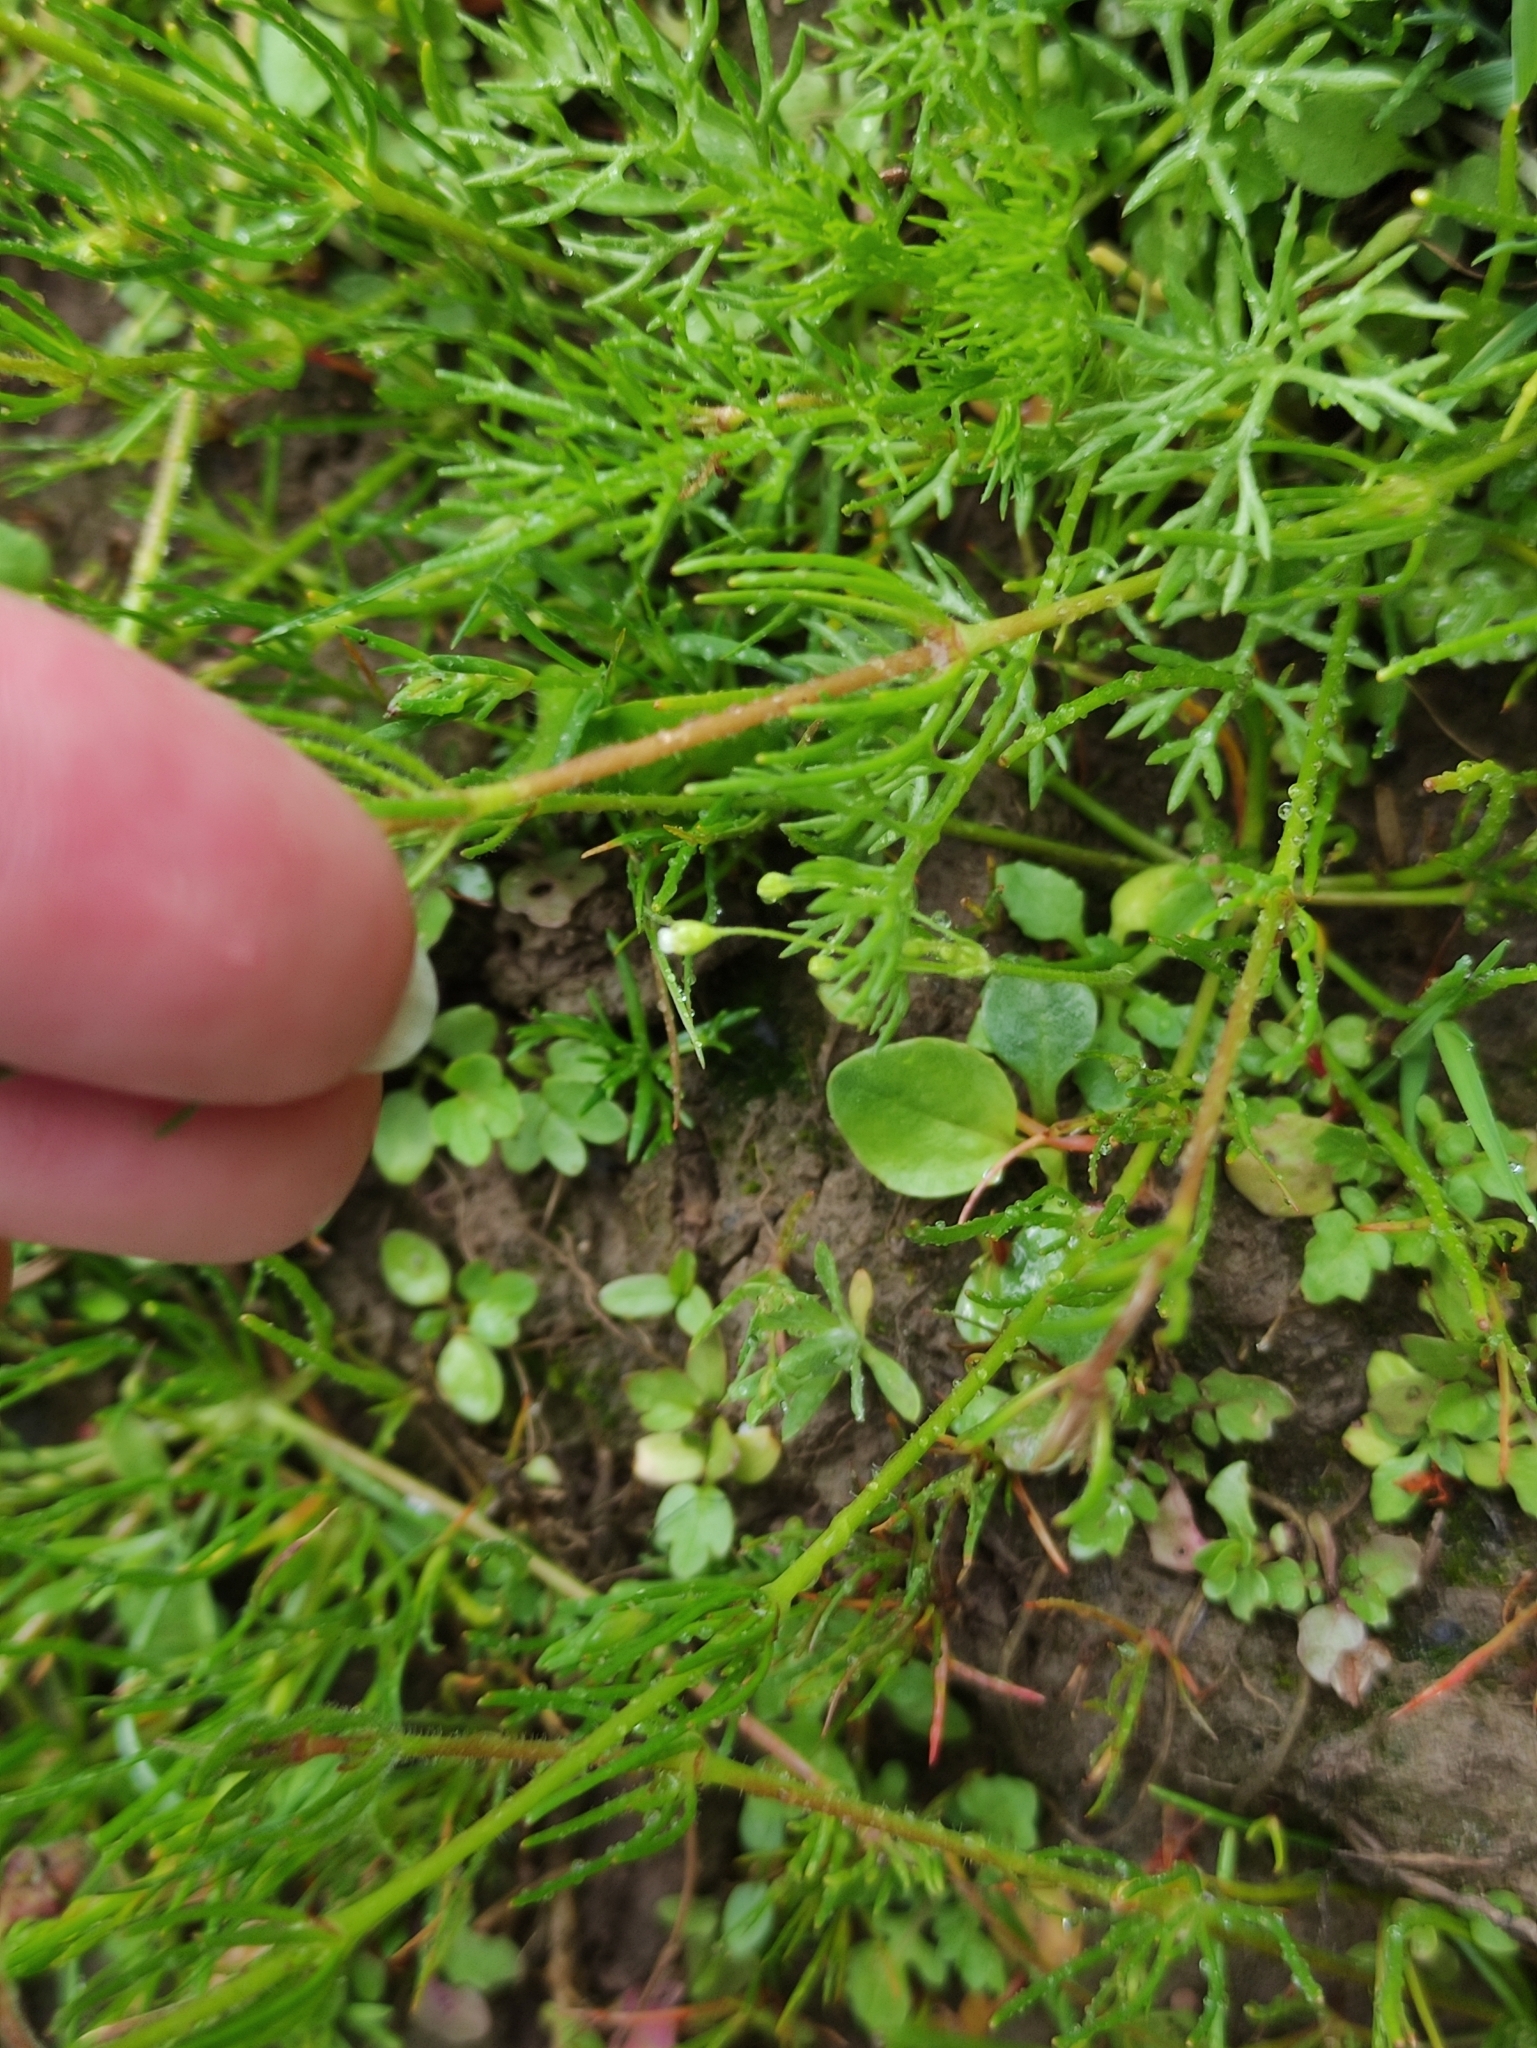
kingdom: Plantae
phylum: Tracheophyta
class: Magnoliopsida
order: Caryophyllales
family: Caryophyllaceae
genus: Spergula
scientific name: Spergula arvensis
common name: Corn spurrey
